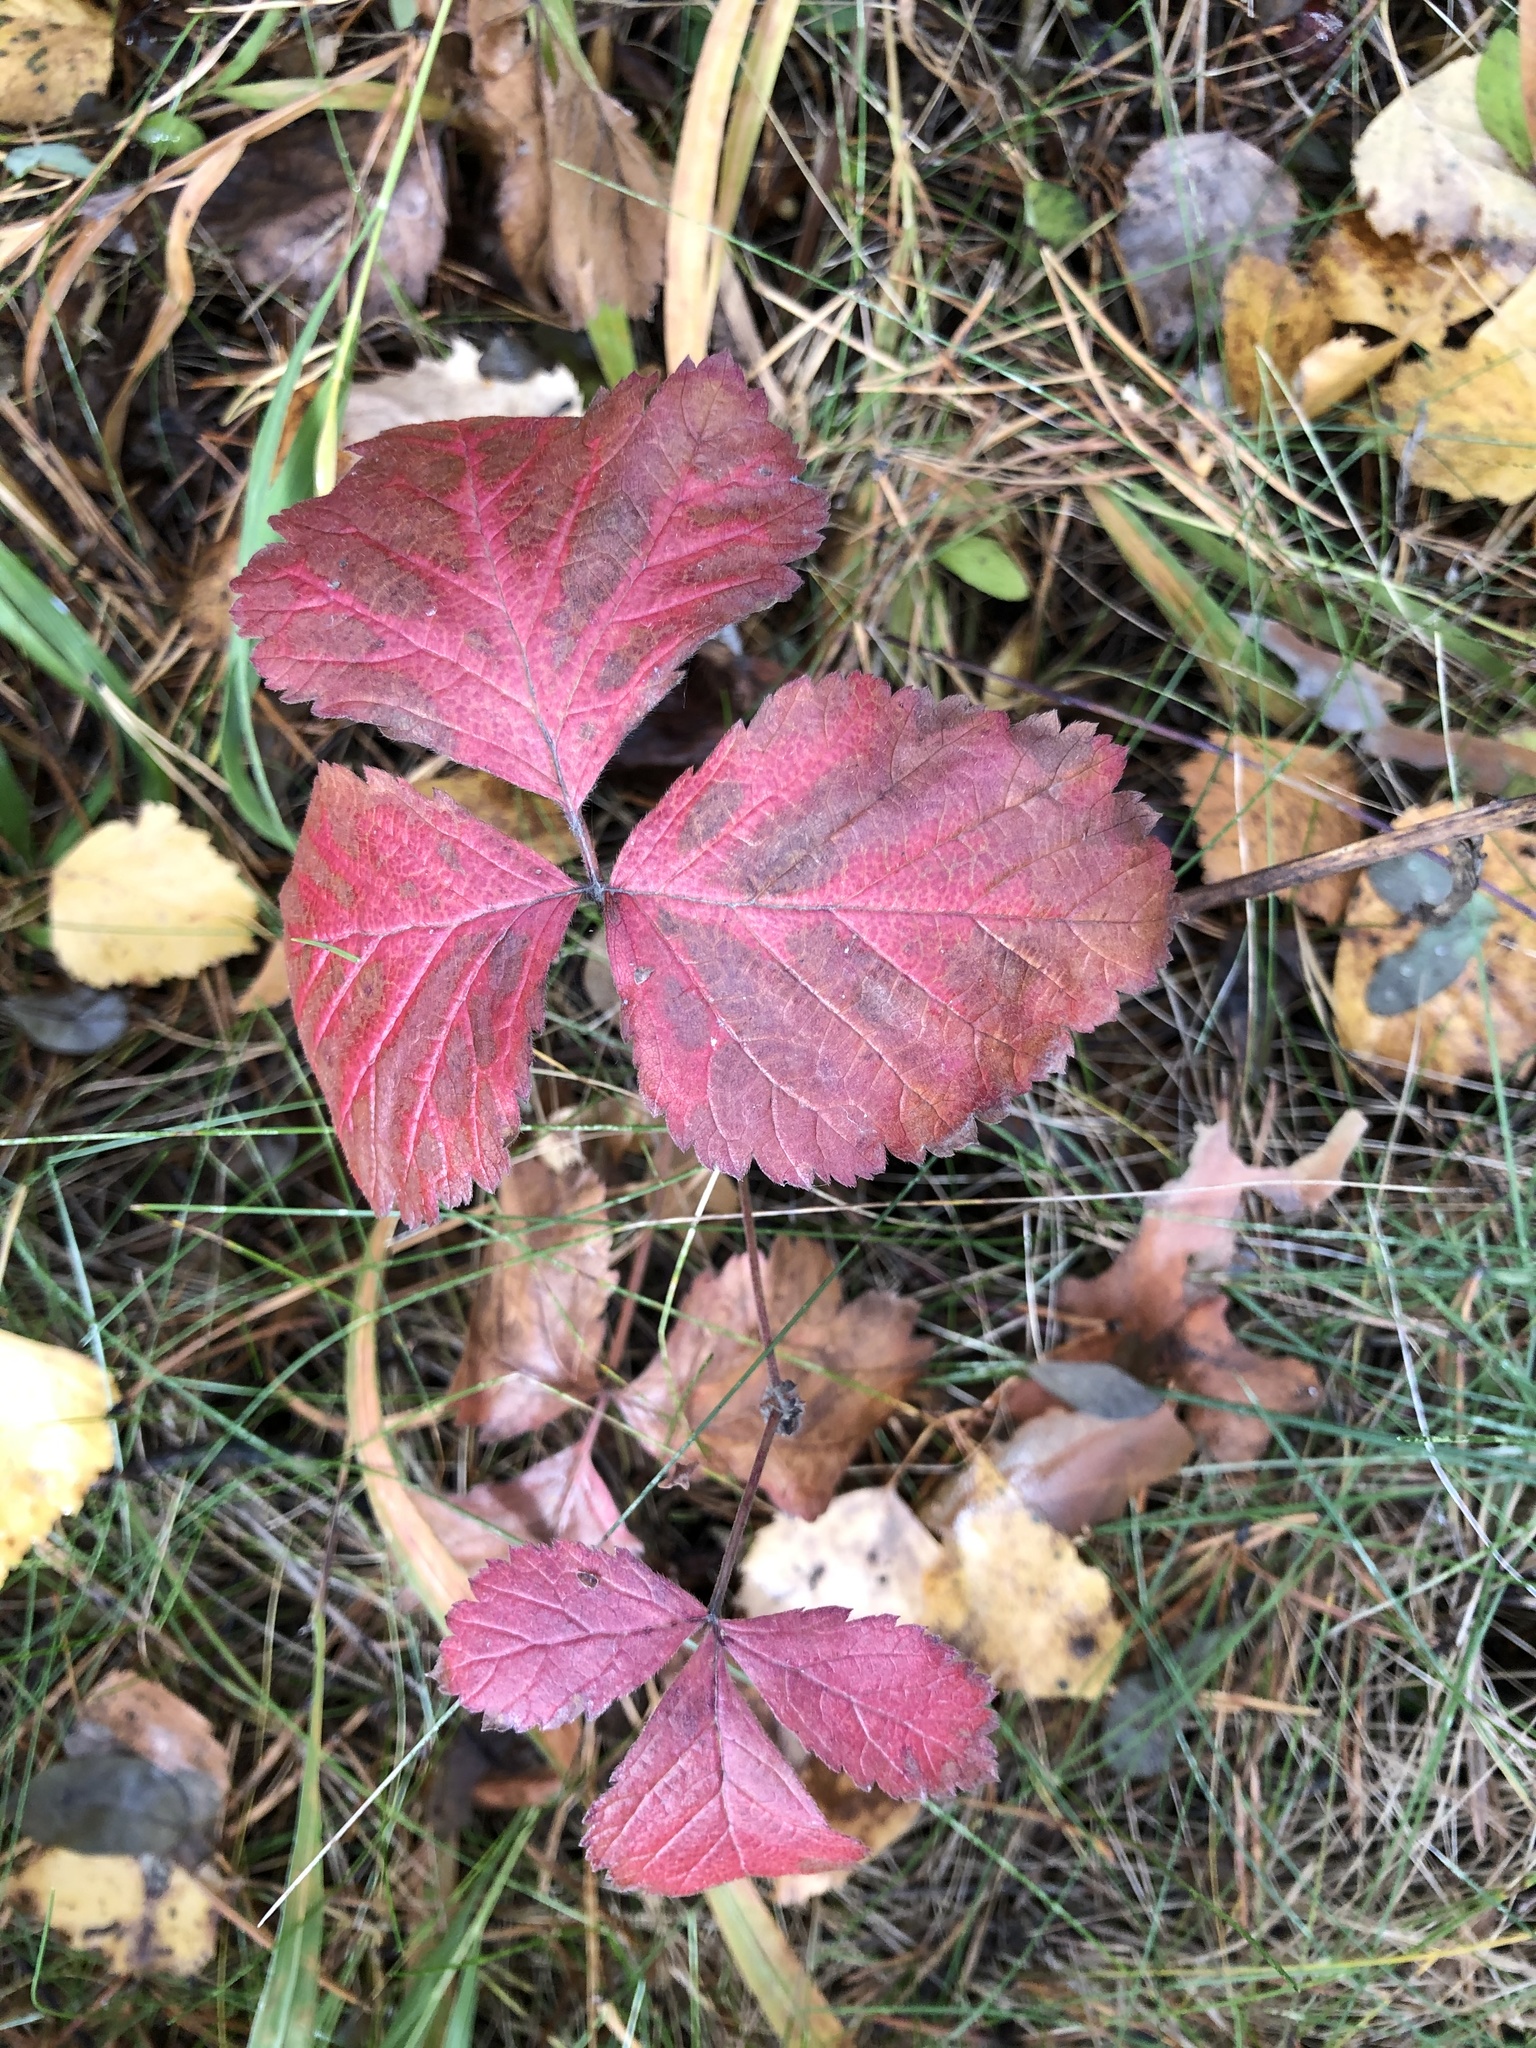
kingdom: Plantae
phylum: Tracheophyta
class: Magnoliopsida
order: Rosales
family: Rosaceae
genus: Rubus
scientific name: Rubus saxatilis
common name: Stone bramble
